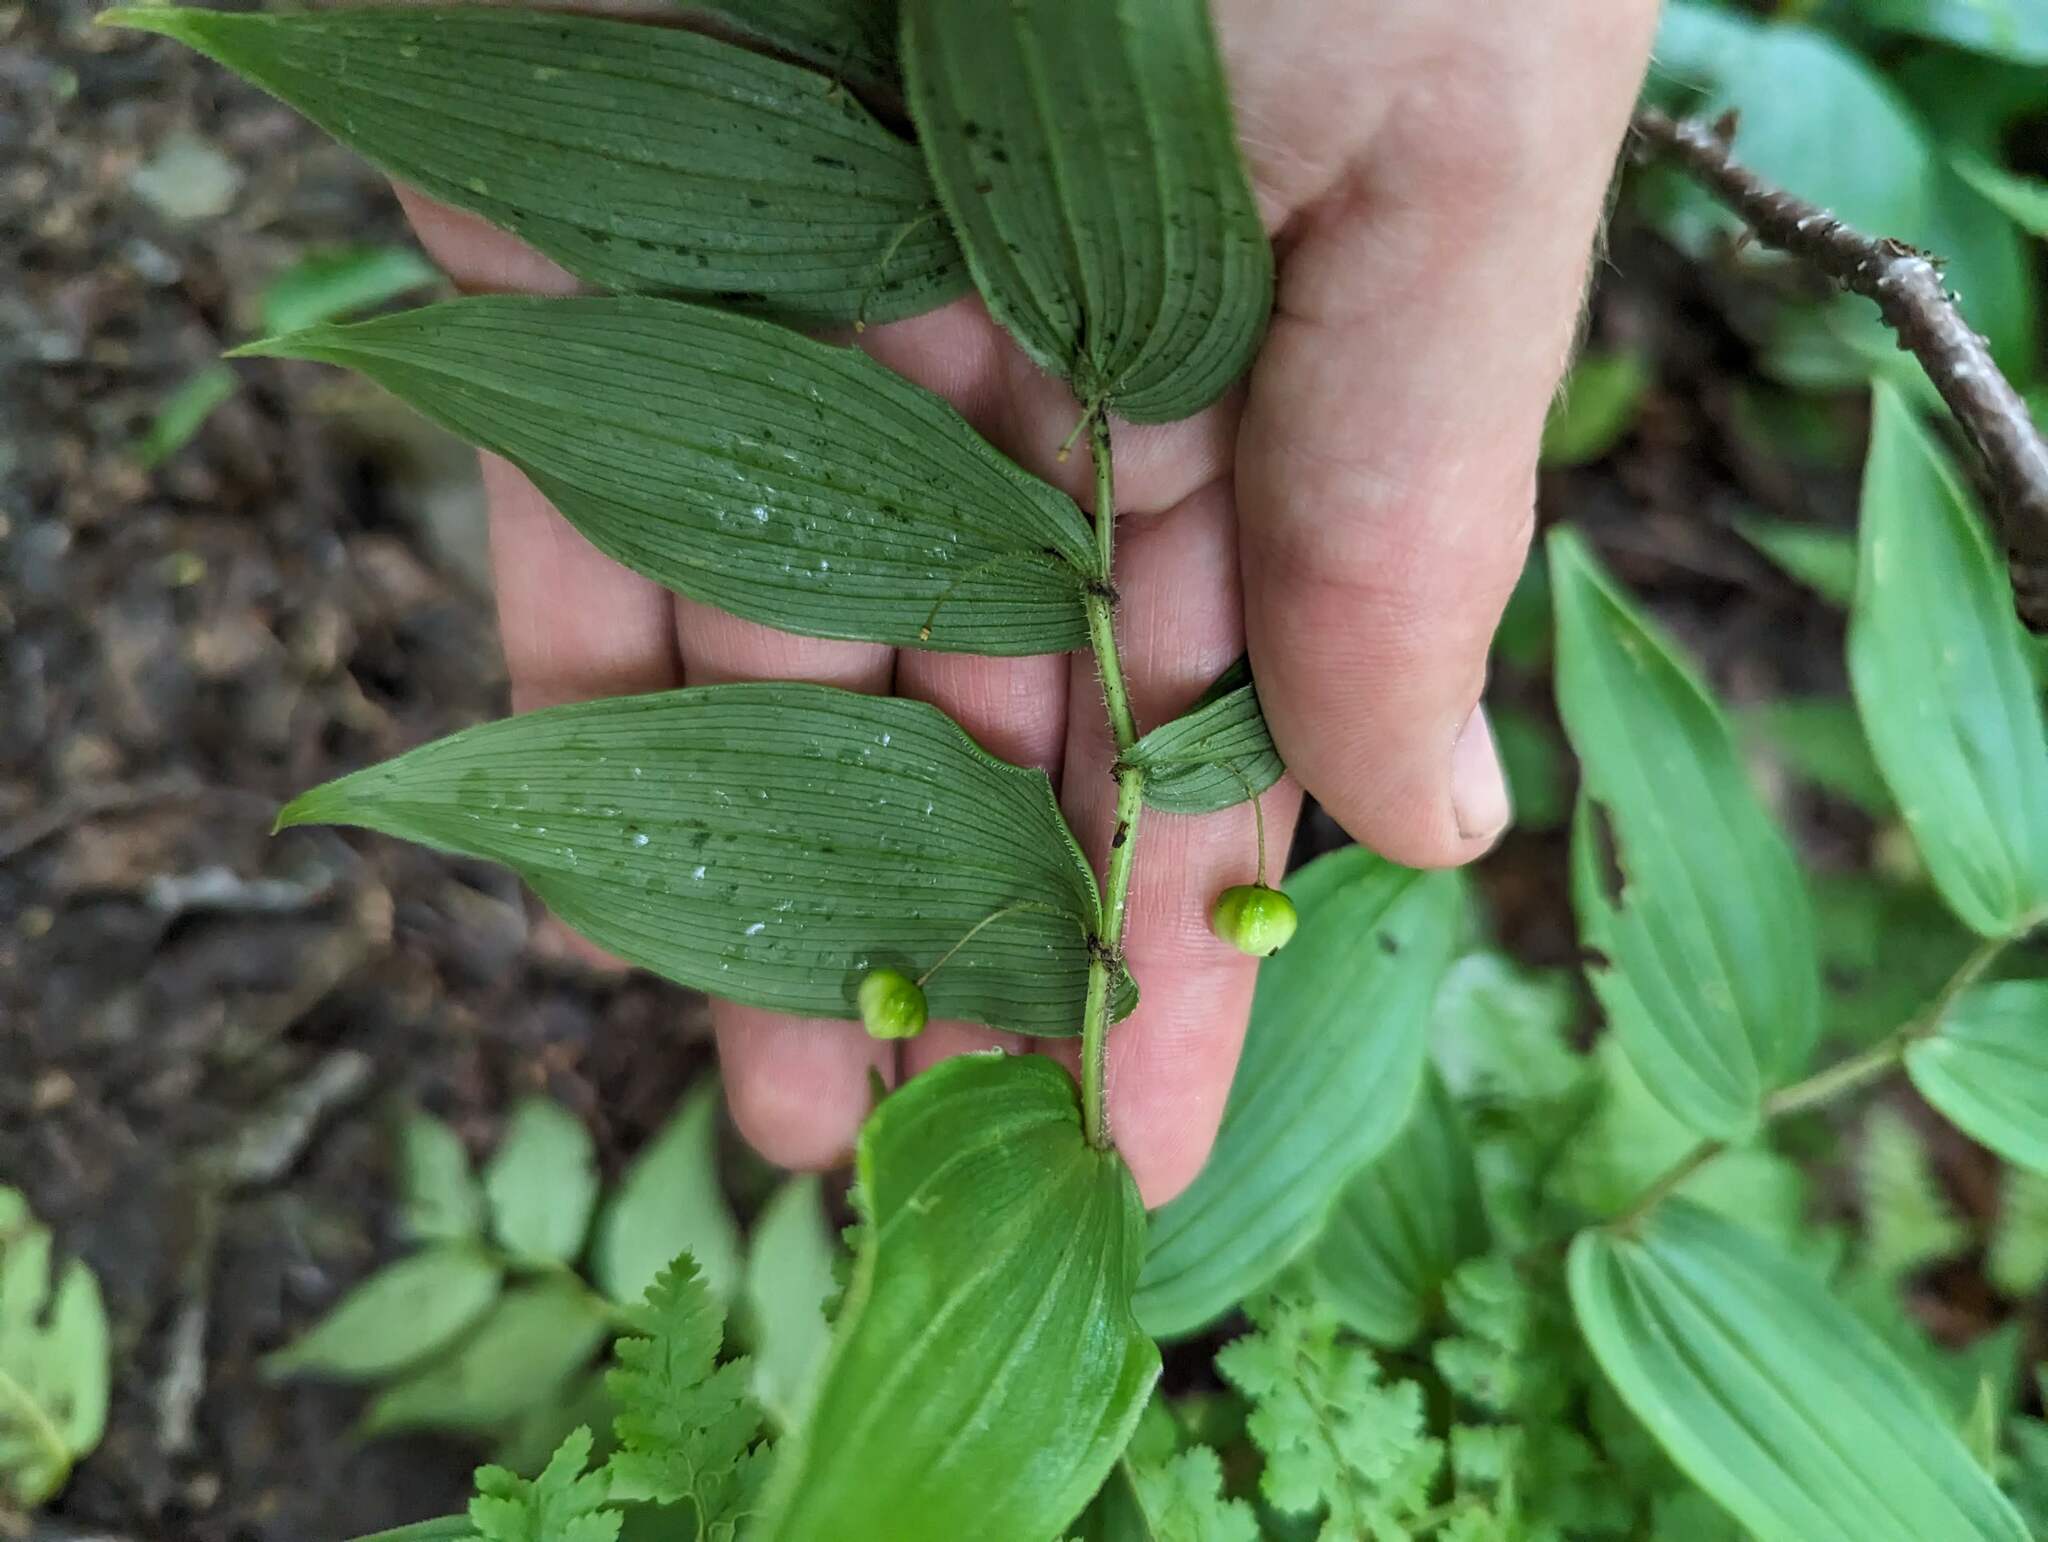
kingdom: Plantae
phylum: Tracheophyta
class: Liliopsida
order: Liliales
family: Liliaceae
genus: Streptopus
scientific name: Streptopus lanceolatus
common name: Rose mandarin
